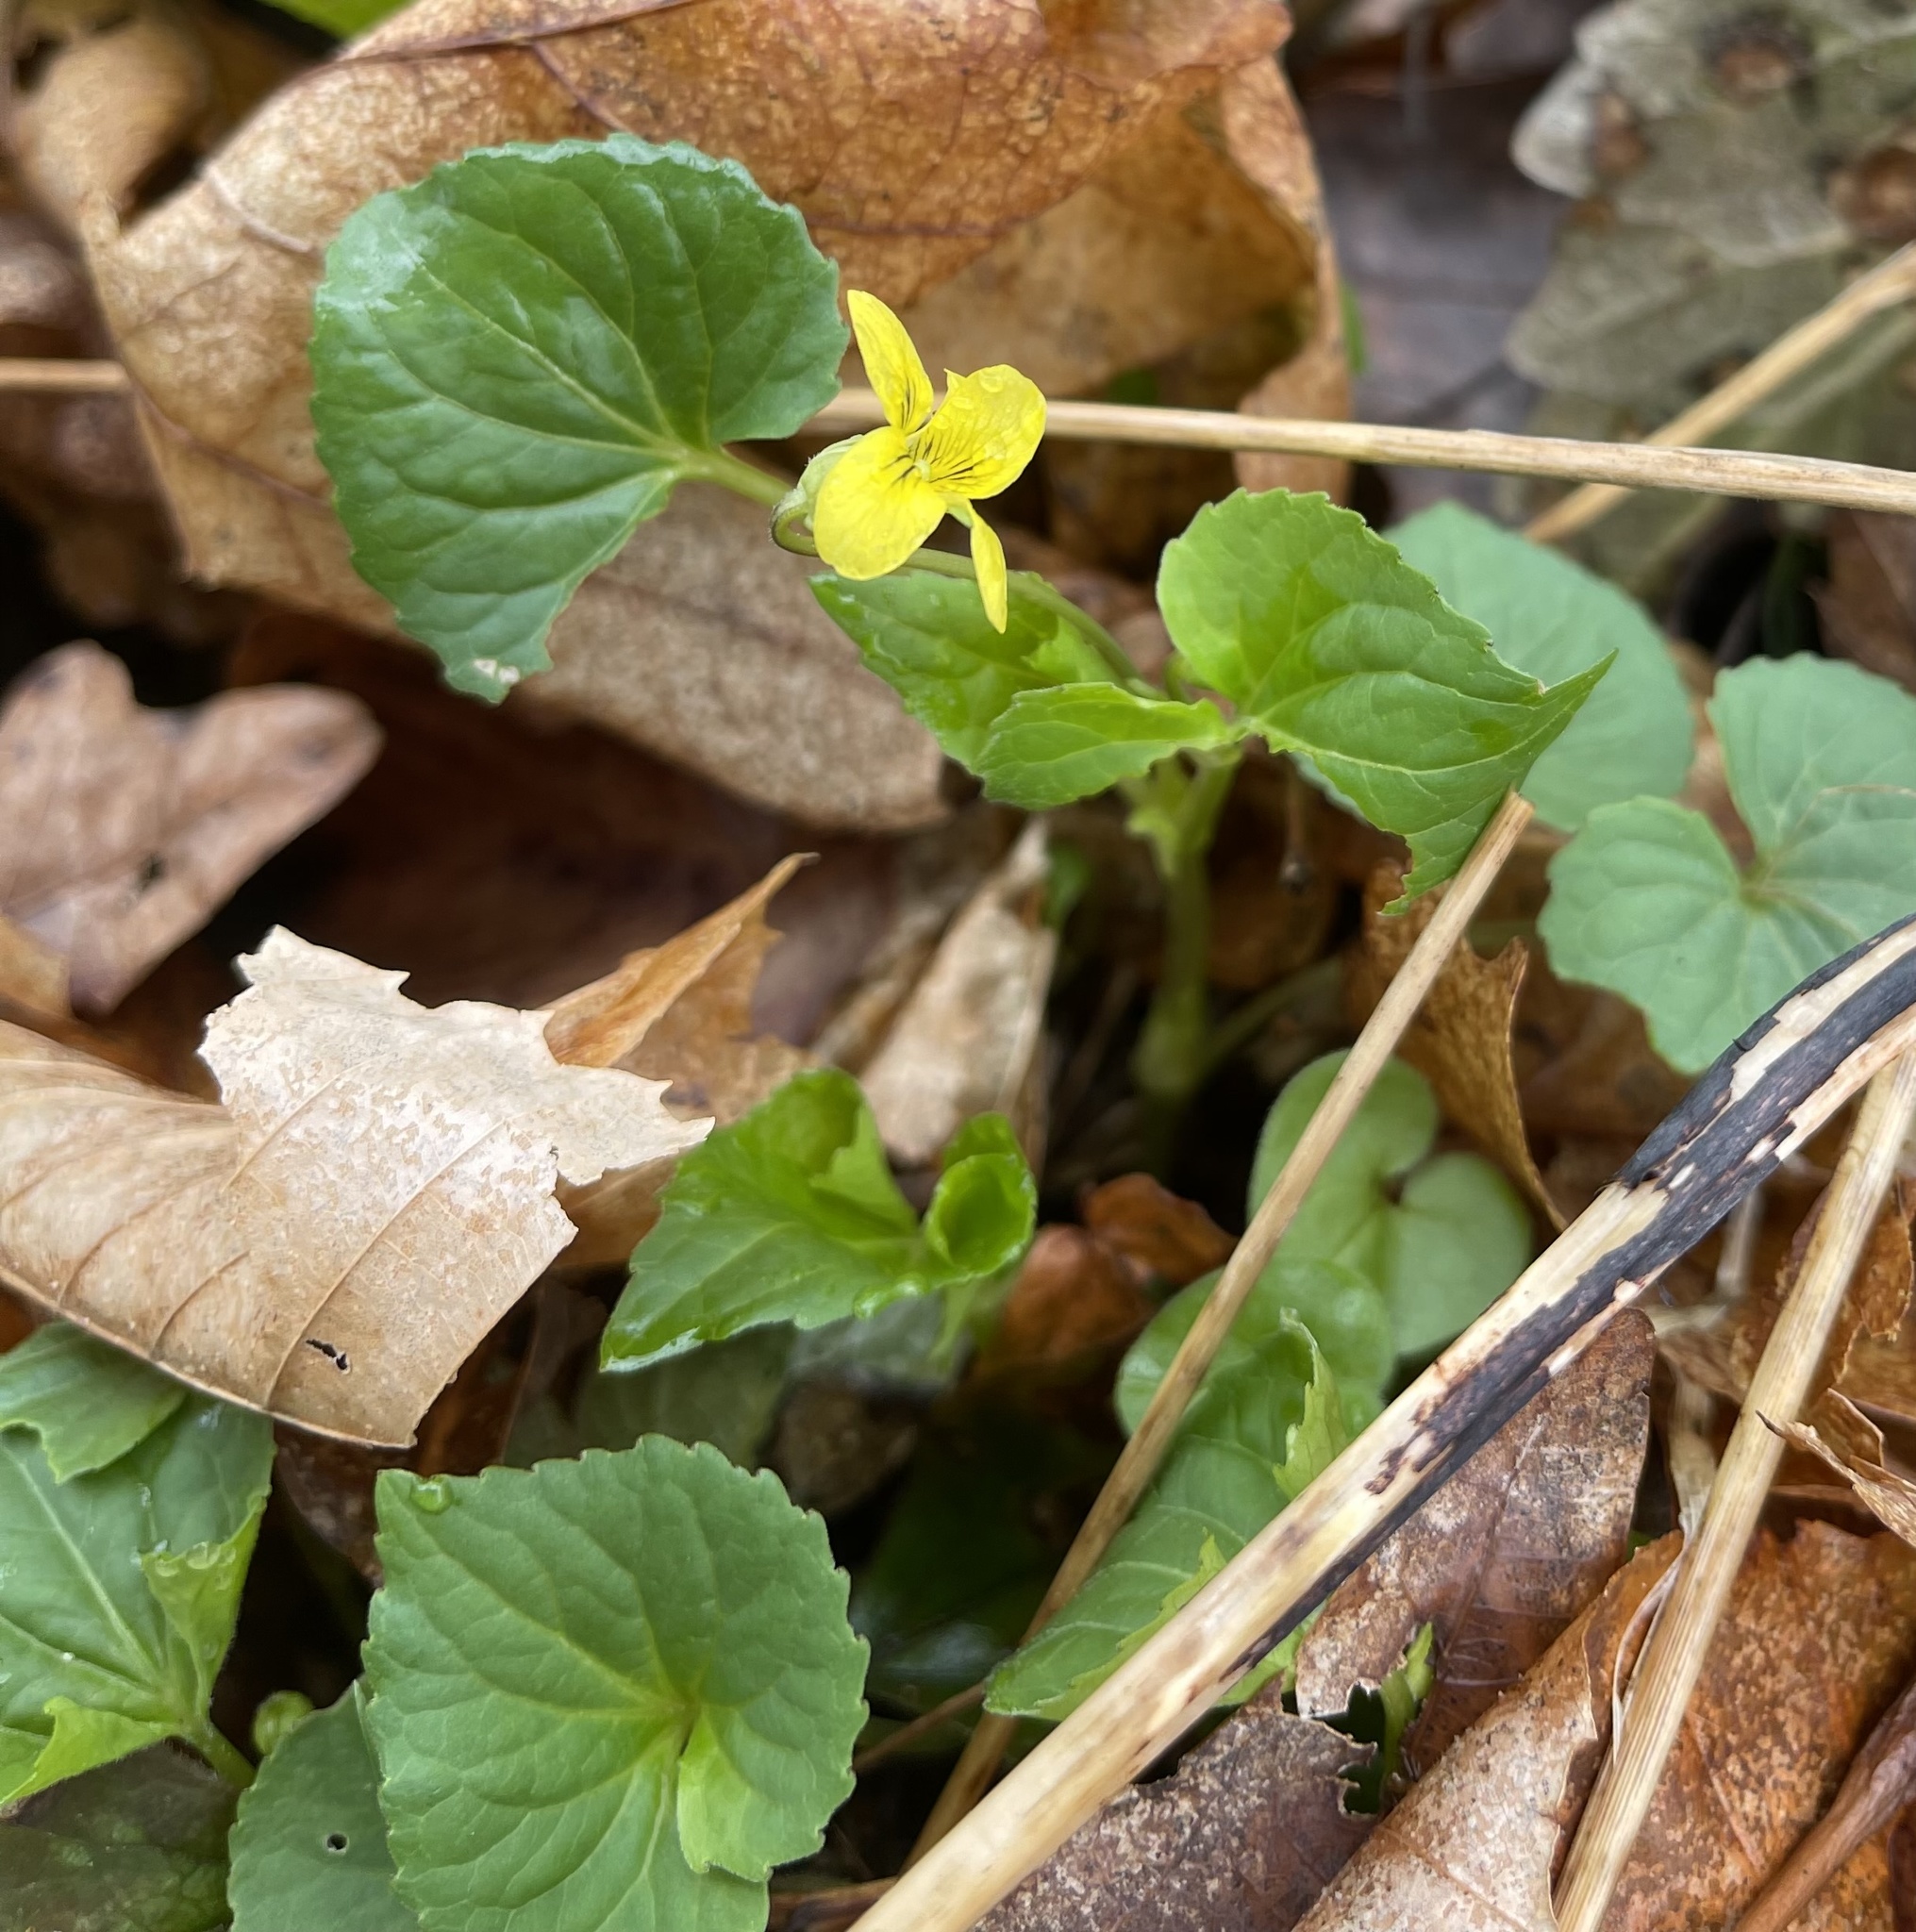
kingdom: Plantae
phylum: Tracheophyta
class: Magnoliopsida
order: Malpighiales
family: Violaceae
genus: Viola
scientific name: Viola eriocarpa
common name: Smooth yellow violet
